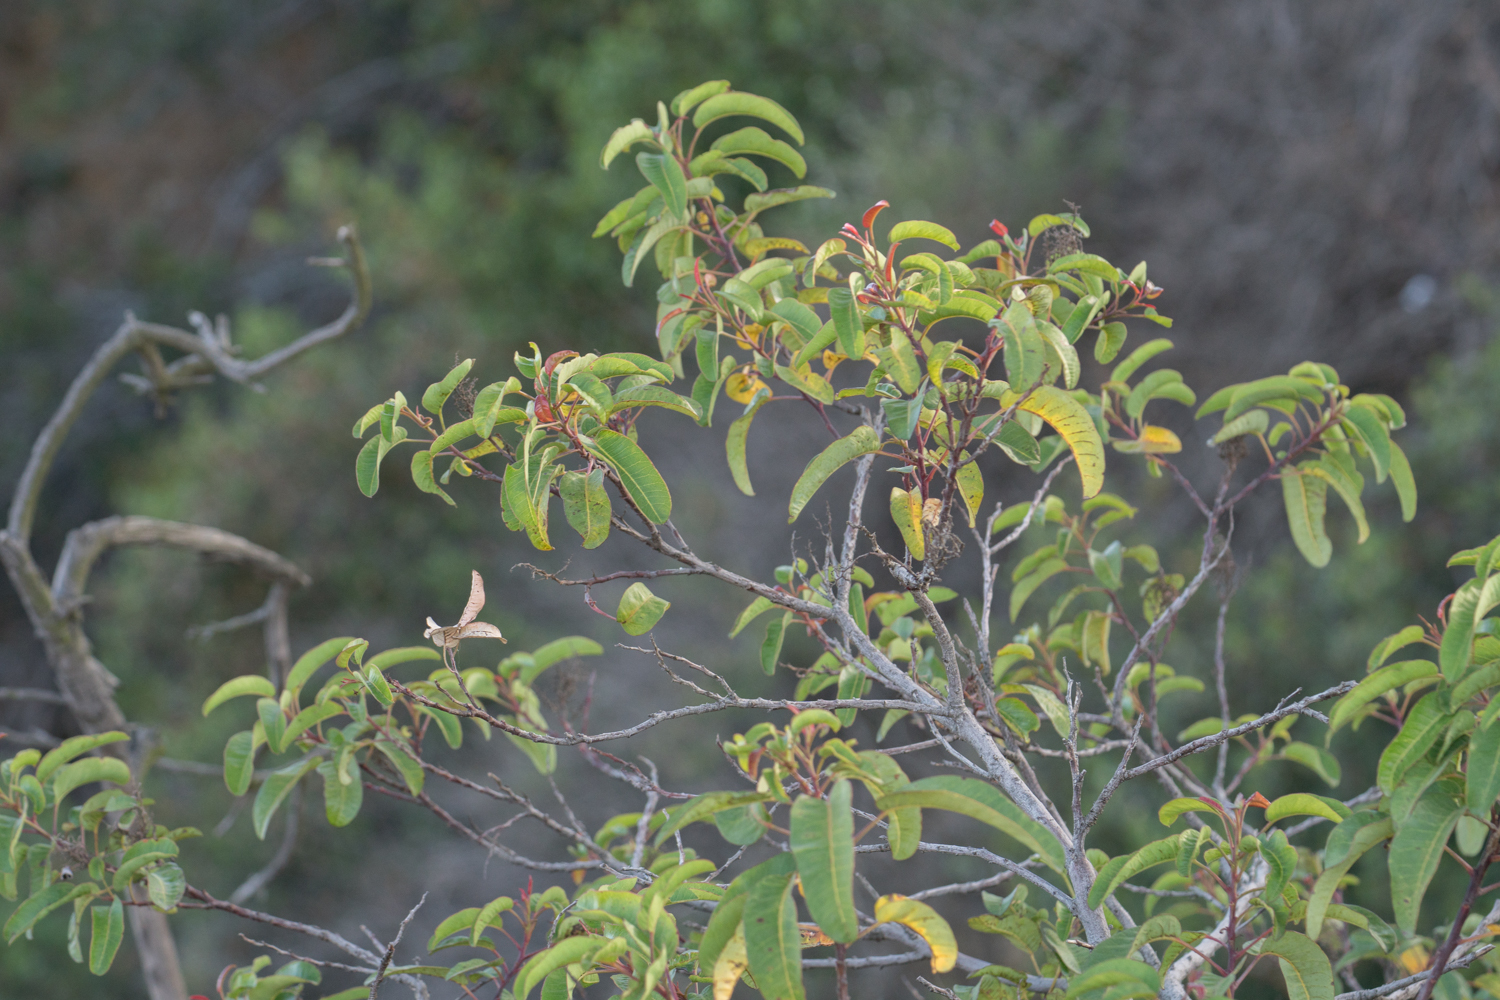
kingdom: Plantae
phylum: Tracheophyta
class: Magnoliopsida
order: Sapindales
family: Anacardiaceae
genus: Malosma
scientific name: Malosma laurina
